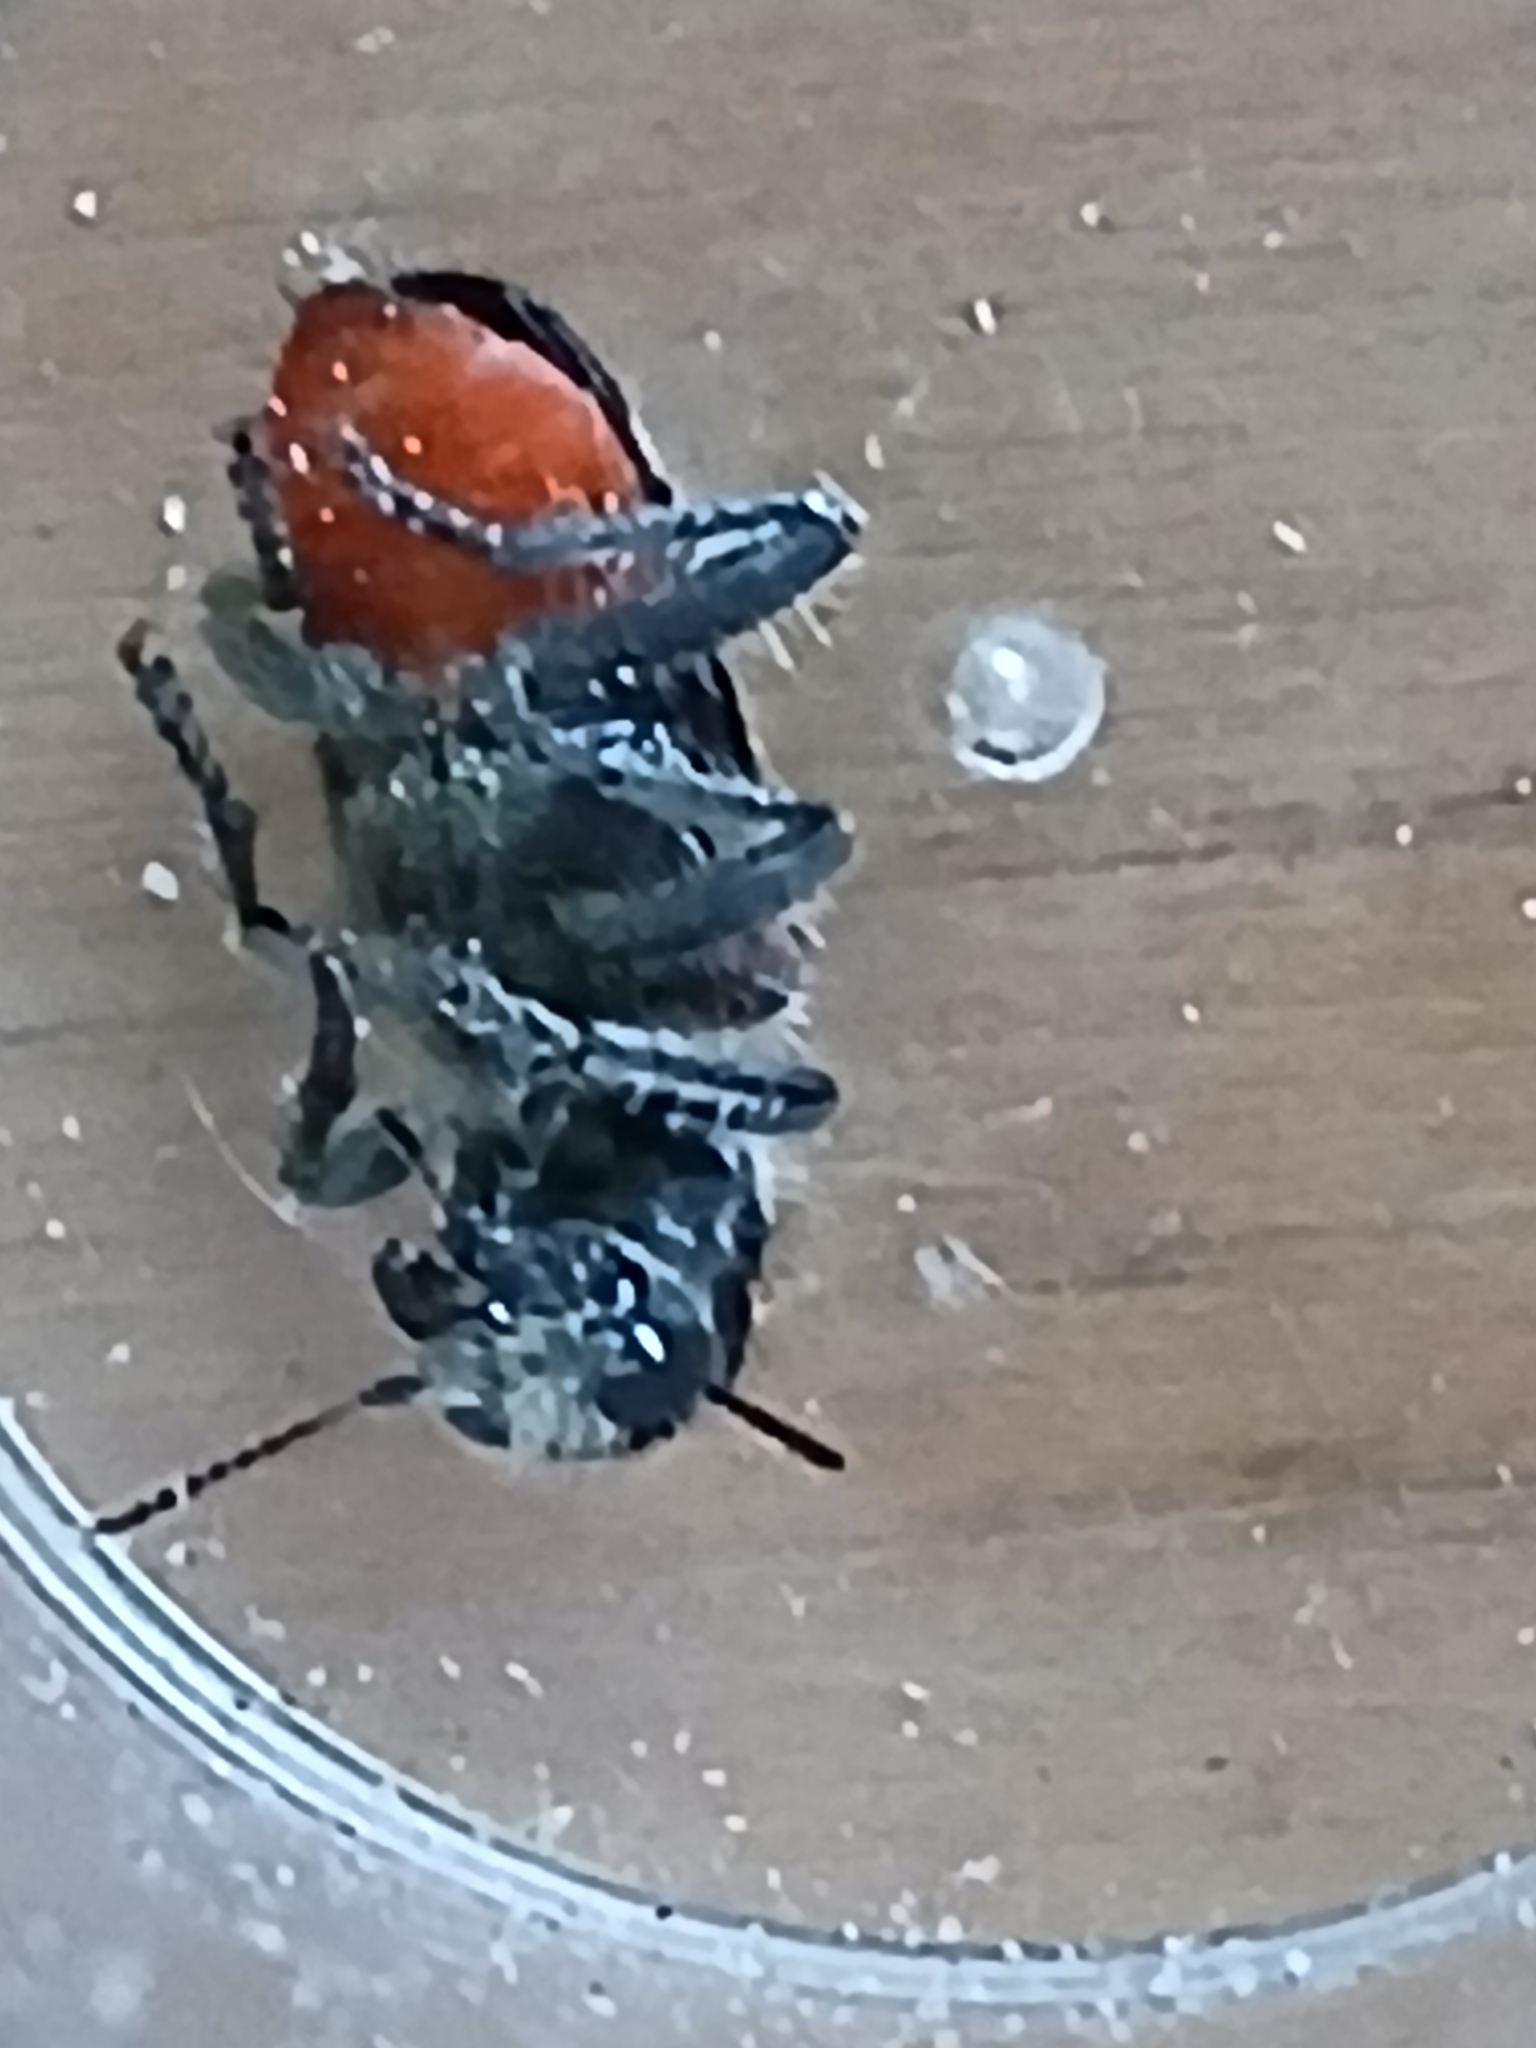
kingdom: Animalia
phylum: Arthropoda
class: Insecta
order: Coleoptera
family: Cleridae
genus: Clerus
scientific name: Clerus mutillarius
